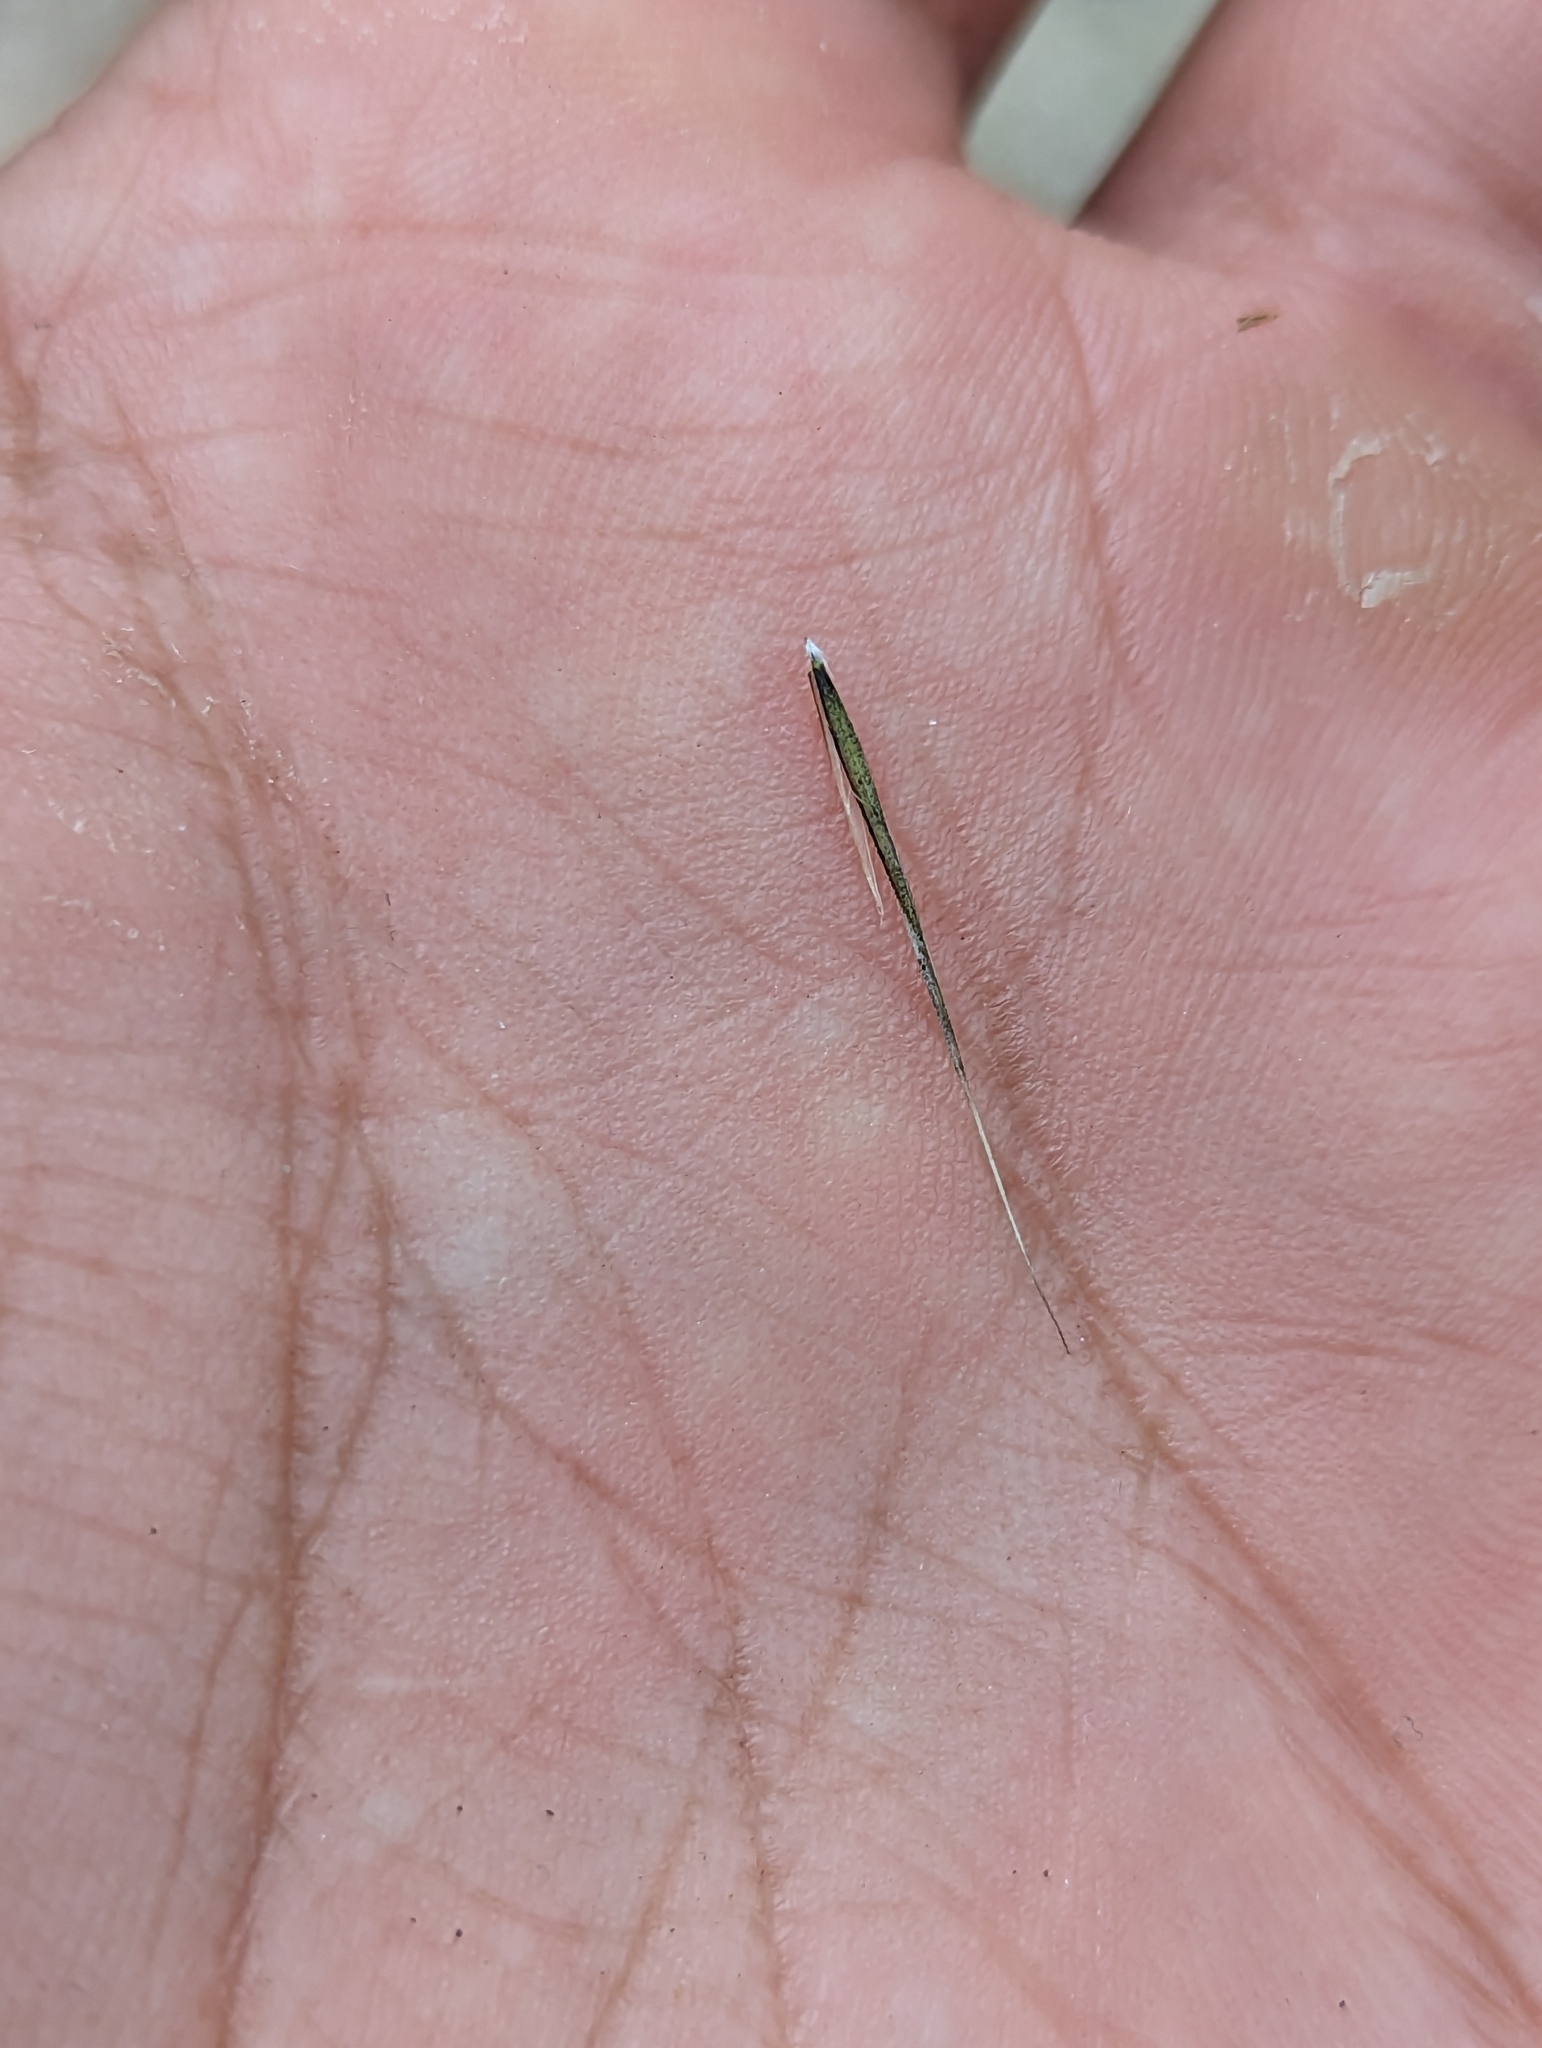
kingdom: Plantae
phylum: Tracheophyta
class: Liliopsida
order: Poales
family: Poaceae
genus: Aristida
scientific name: Aristida ternipes
